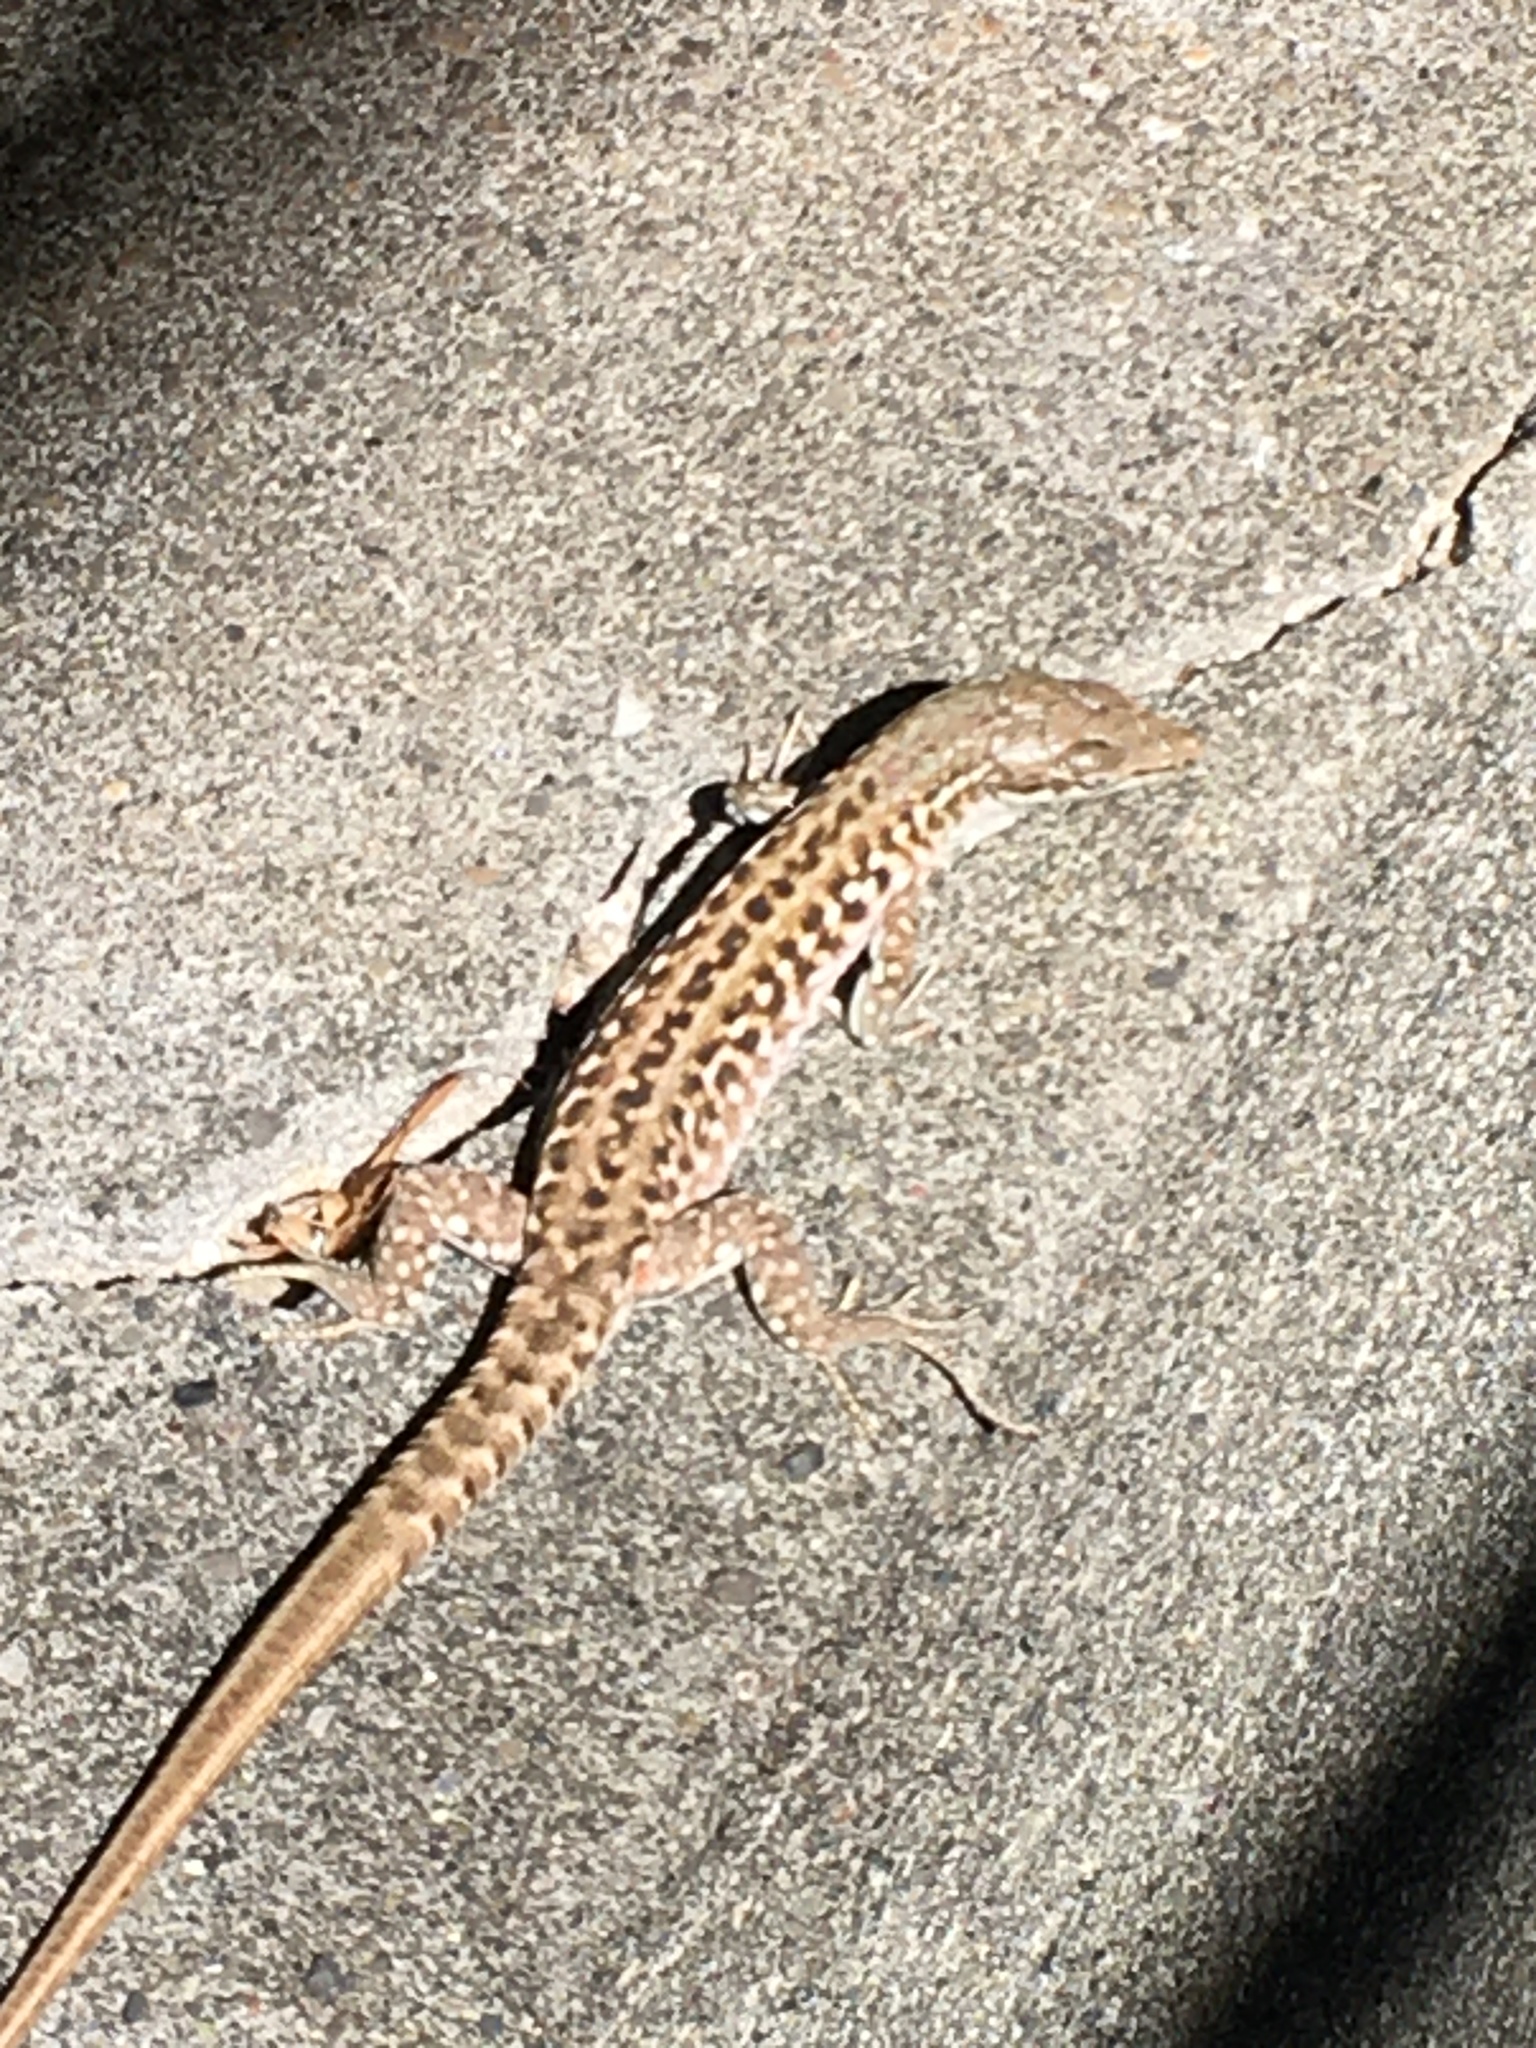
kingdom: Animalia
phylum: Chordata
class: Squamata
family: Lacertidae
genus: Podarcis
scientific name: Podarcis siculus
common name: Italian wall lizard
